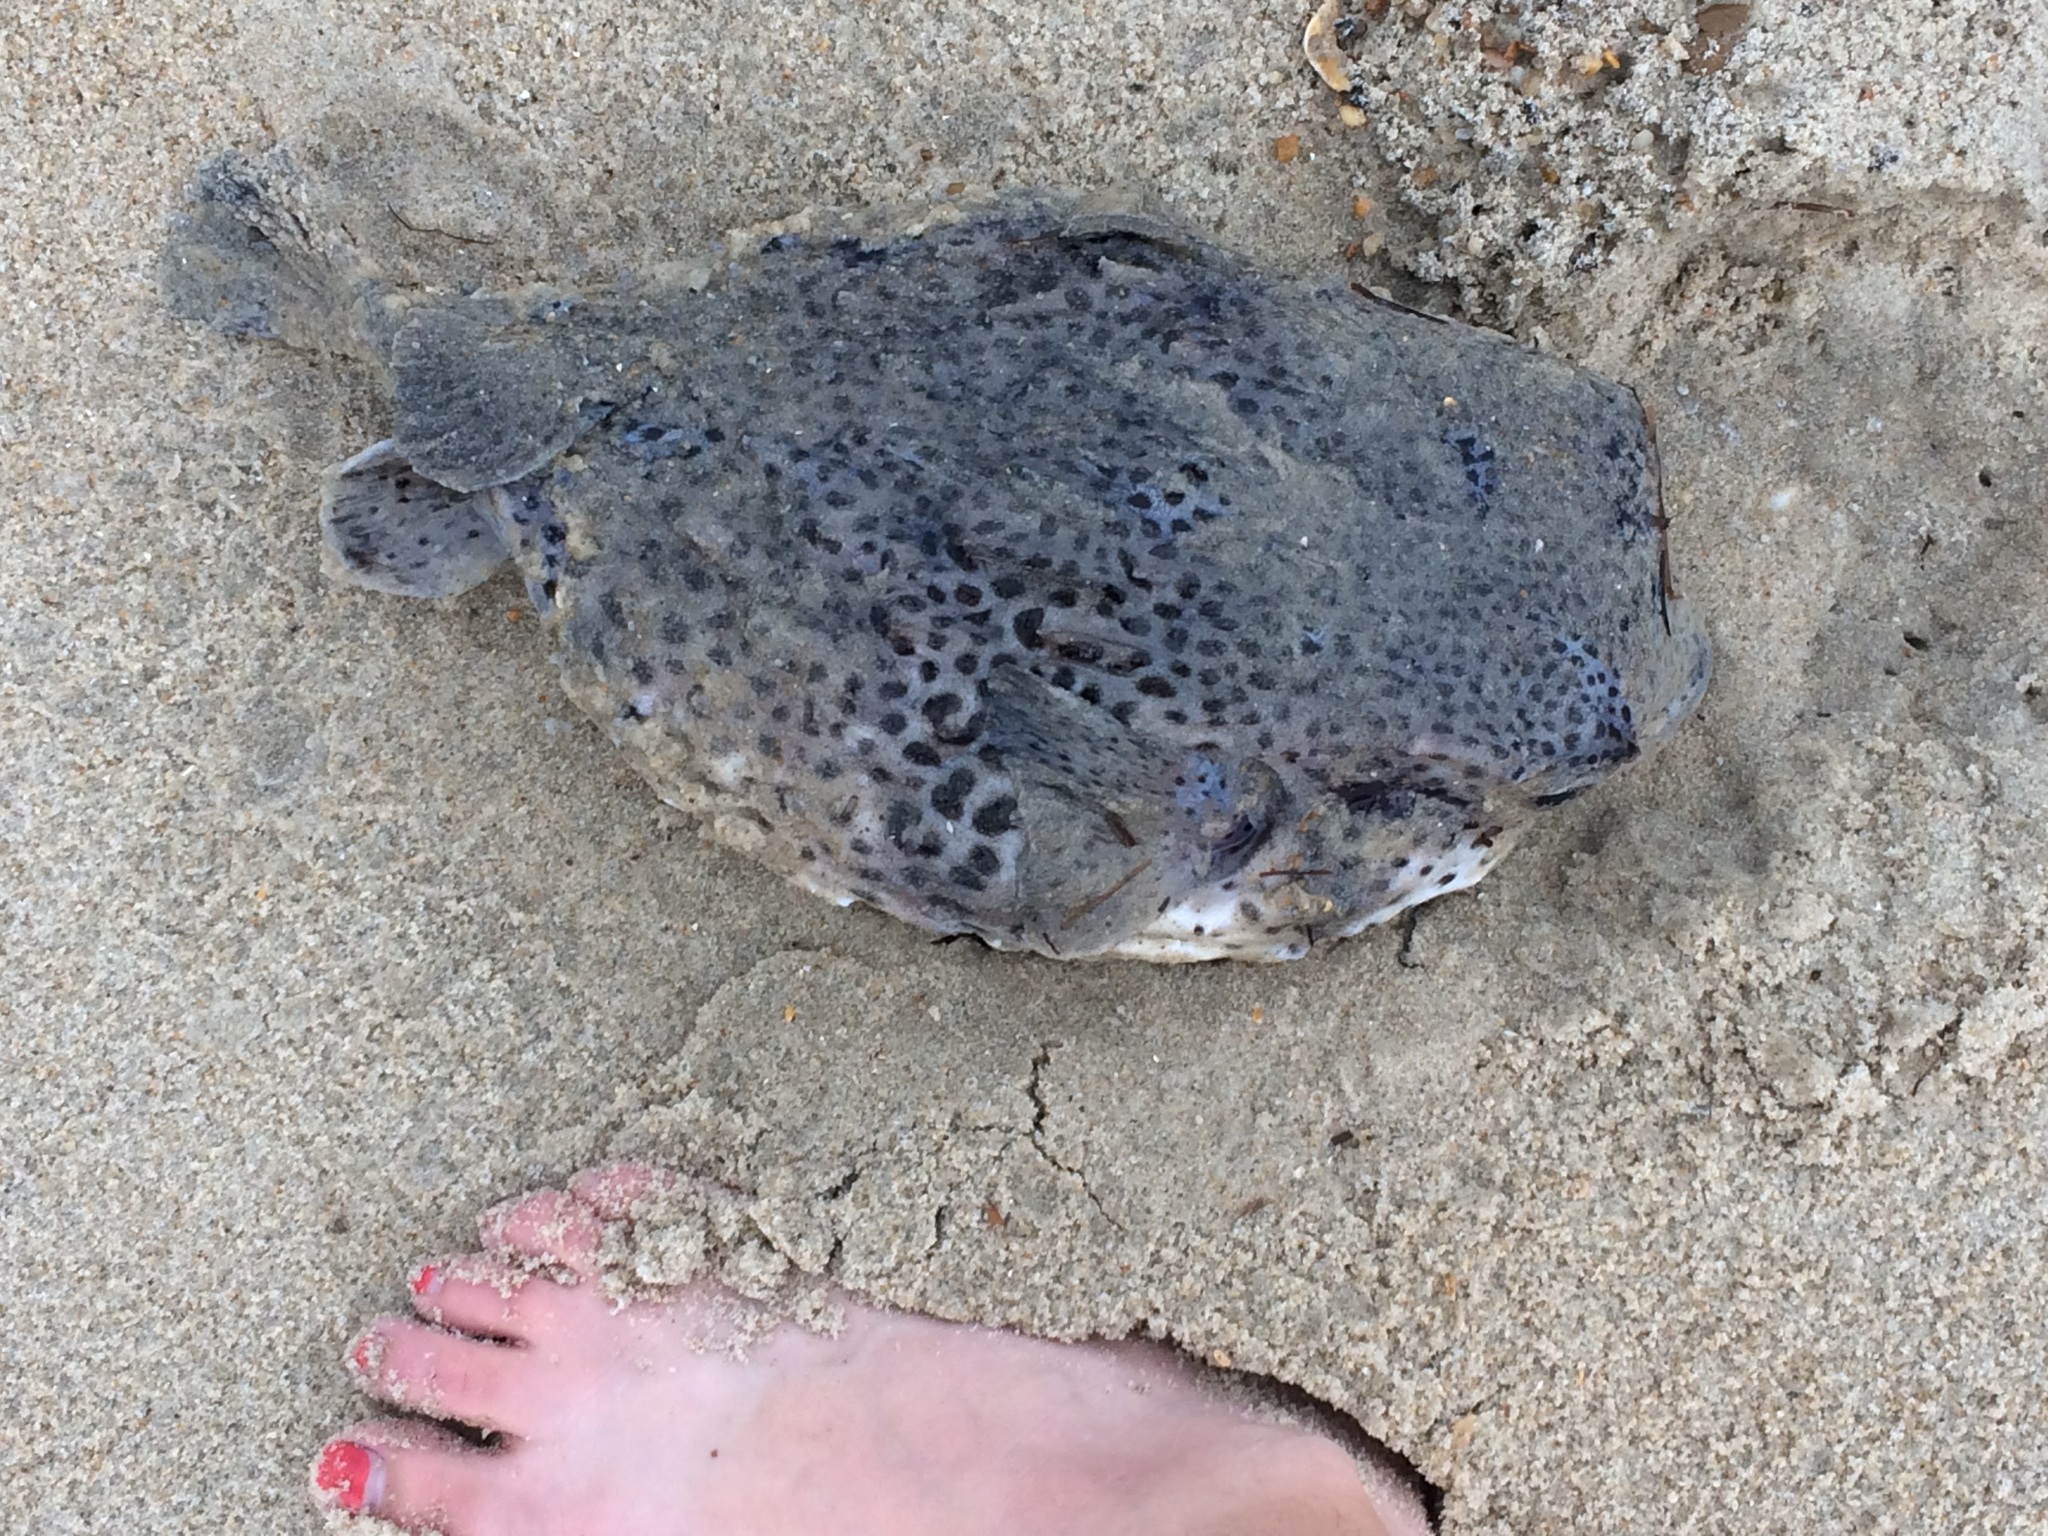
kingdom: Animalia
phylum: Chordata
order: Tetraodontiformes
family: Diodontidae
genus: Diodon
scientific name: Diodon hystrix
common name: Giant porcupinefish
